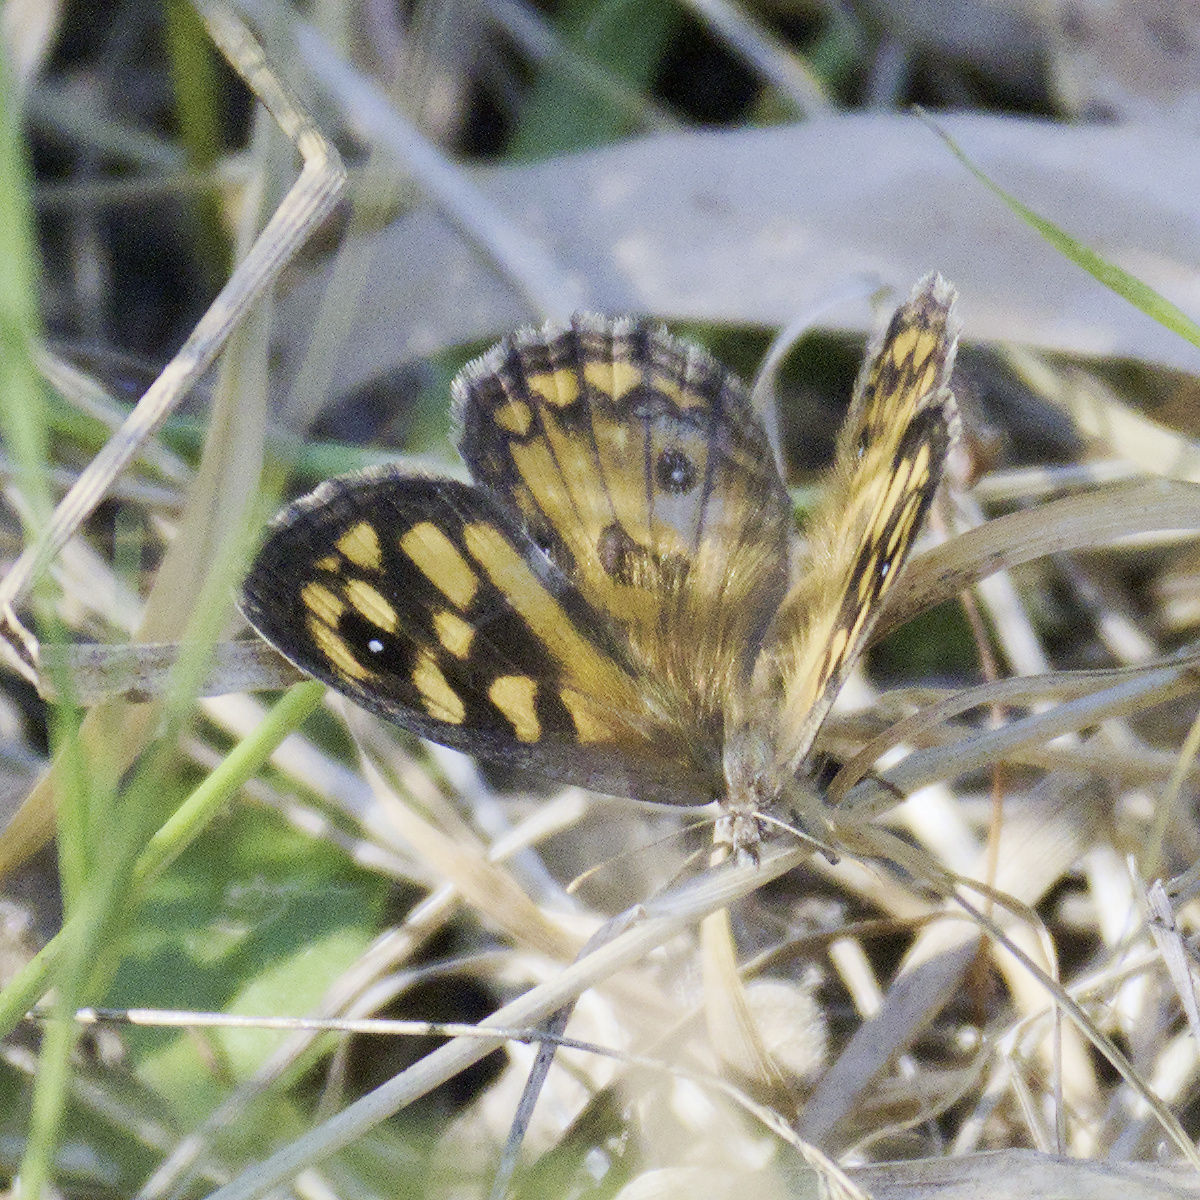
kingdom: Animalia
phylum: Arthropoda
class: Insecta
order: Lepidoptera
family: Nymphalidae
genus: Geitoneura
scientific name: Geitoneura klugii
